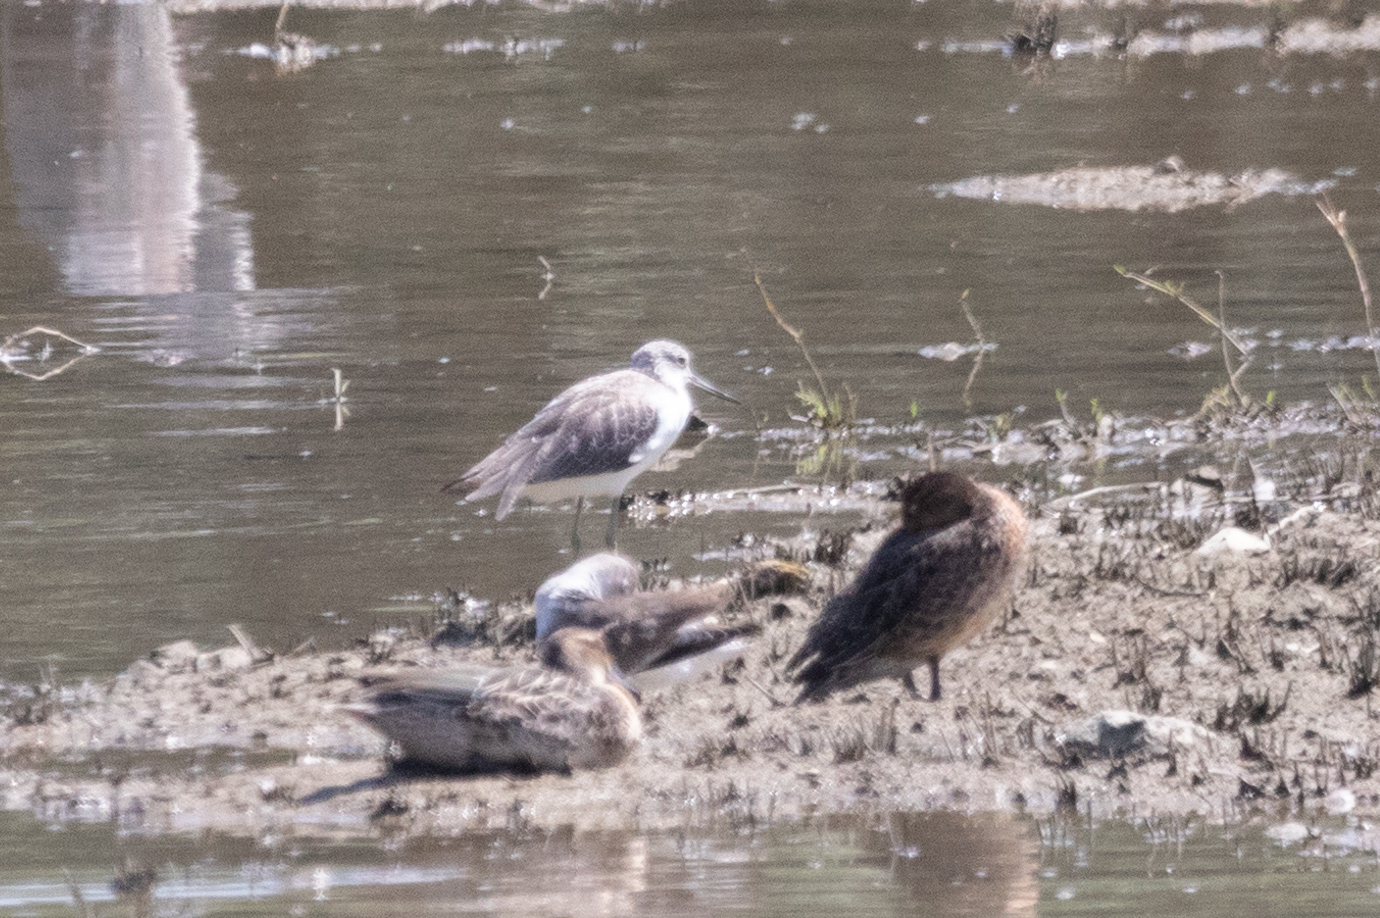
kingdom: Animalia
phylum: Chordata
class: Aves
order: Charadriiformes
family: Scolopacidae
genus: Tringa
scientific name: Tringa nebularia
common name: Common greenshank
